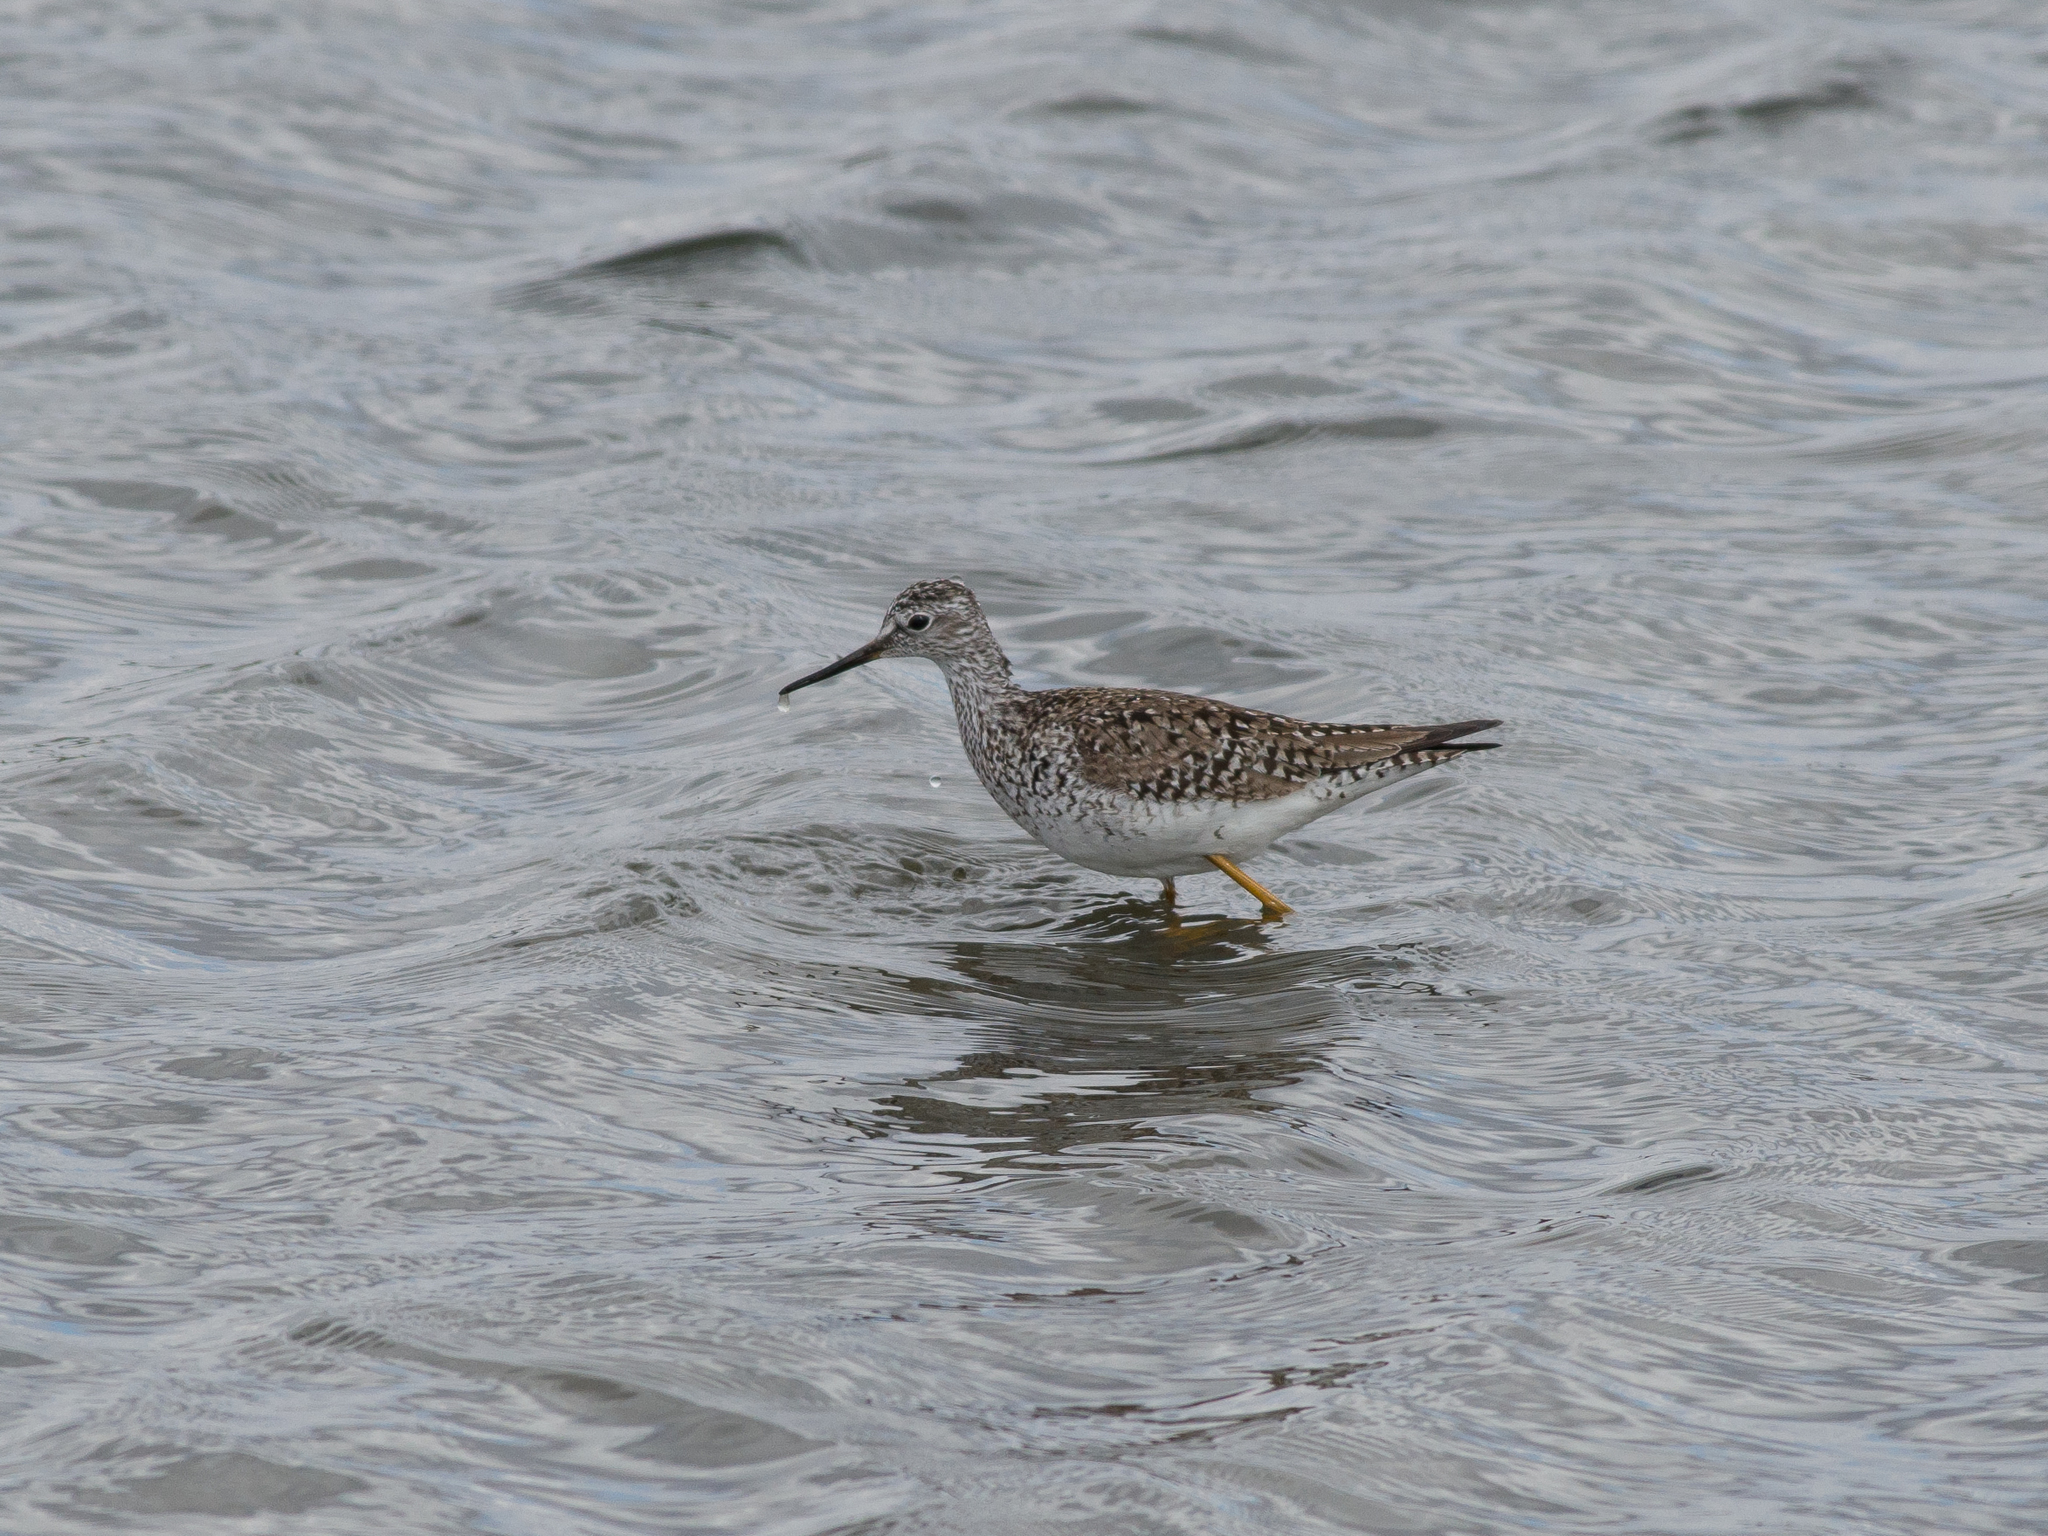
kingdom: Animalia
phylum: Chordata
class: Aves
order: Charadriiformes
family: Scolopacidae
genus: Tringa
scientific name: Tringa flavipes
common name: Lesser yellowlegs
